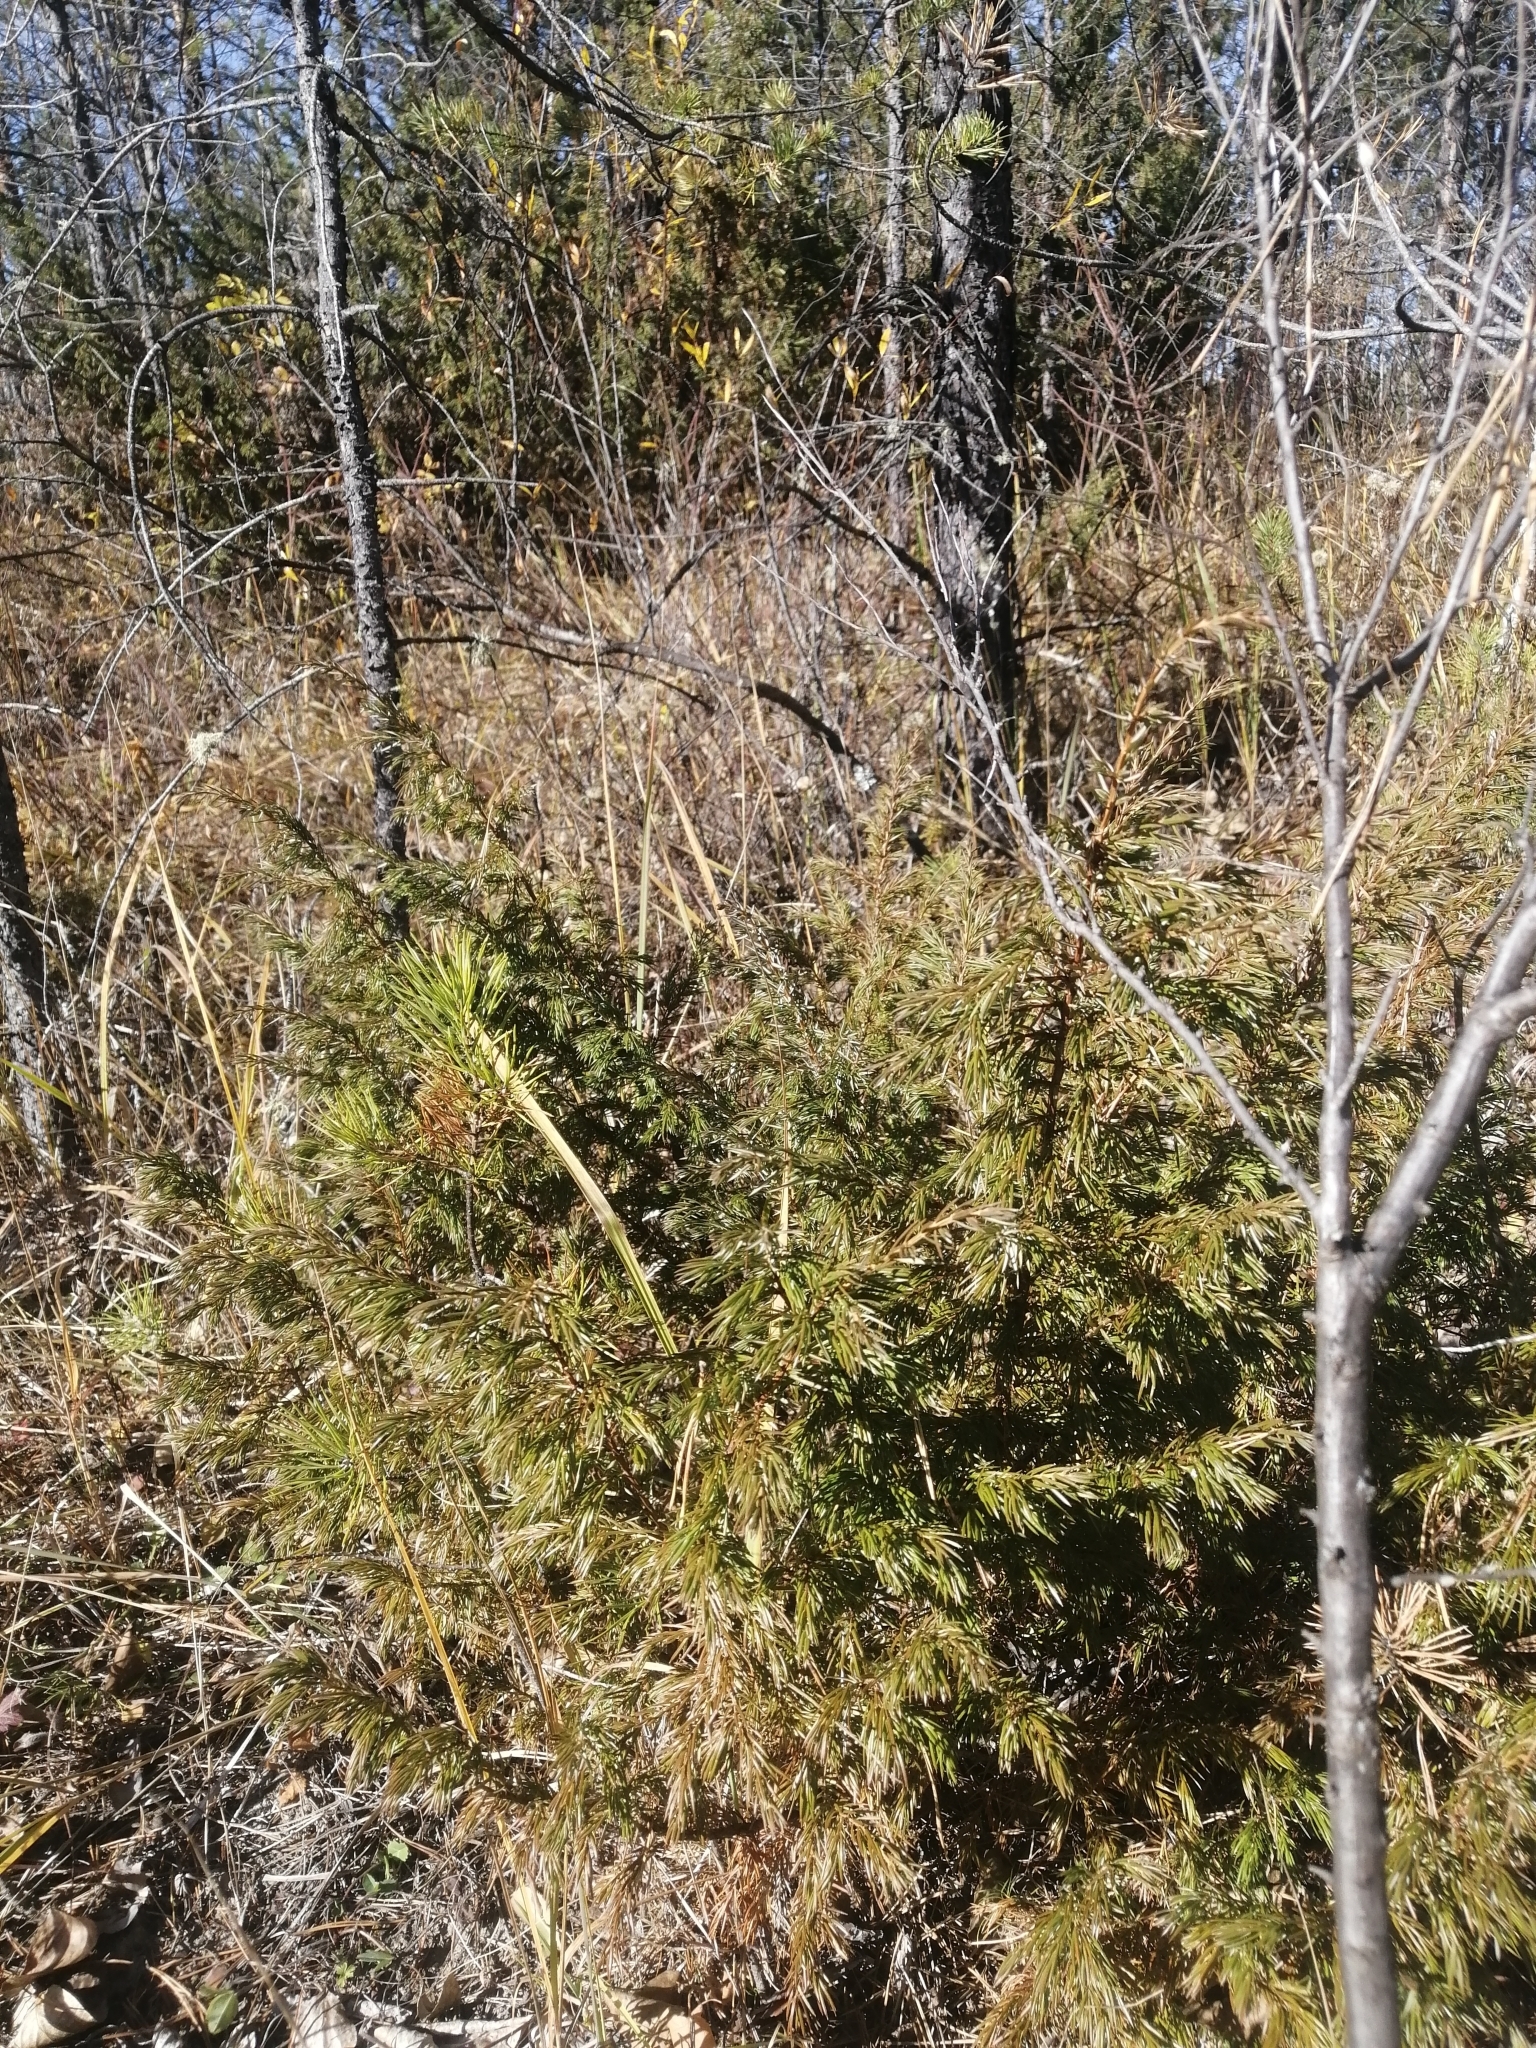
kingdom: Plantae
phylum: Tracheophyta
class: Pinopsida
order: Pinales
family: Cupressaceae
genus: Juniperus
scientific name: Juniperus communis
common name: Common juniper
